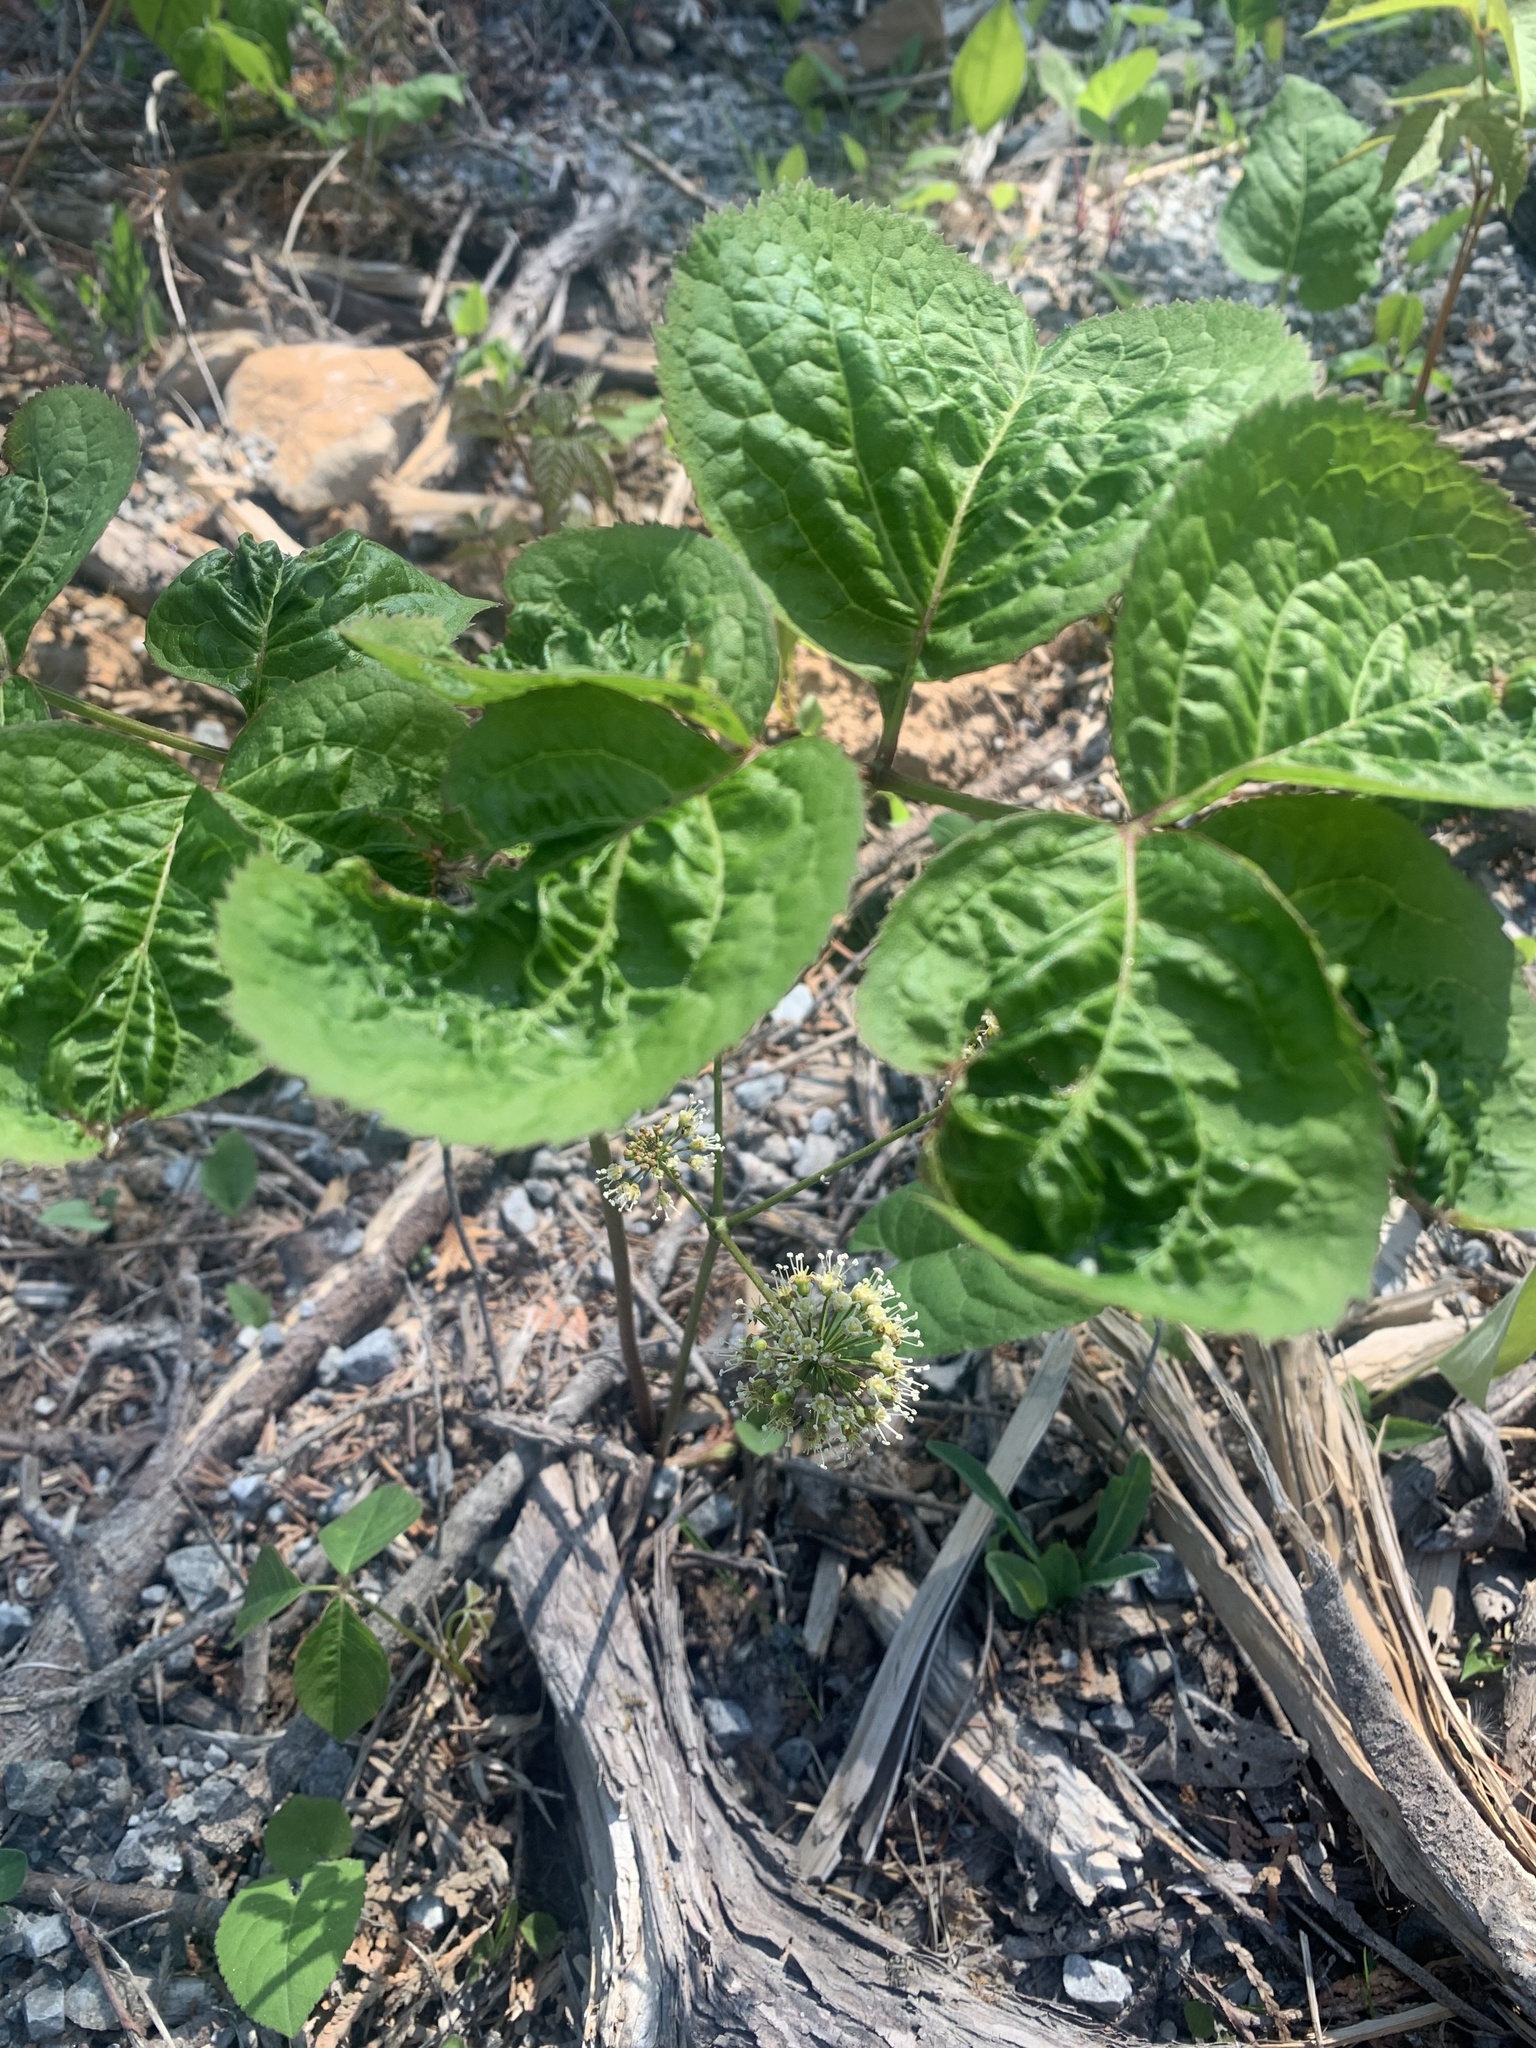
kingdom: Plantae
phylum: Tracheophyta
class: Magnoliopsida
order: Apiales
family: Araliaceae
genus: Aralia
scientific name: Aralia nudicaulis
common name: Wild sarsaparilla
